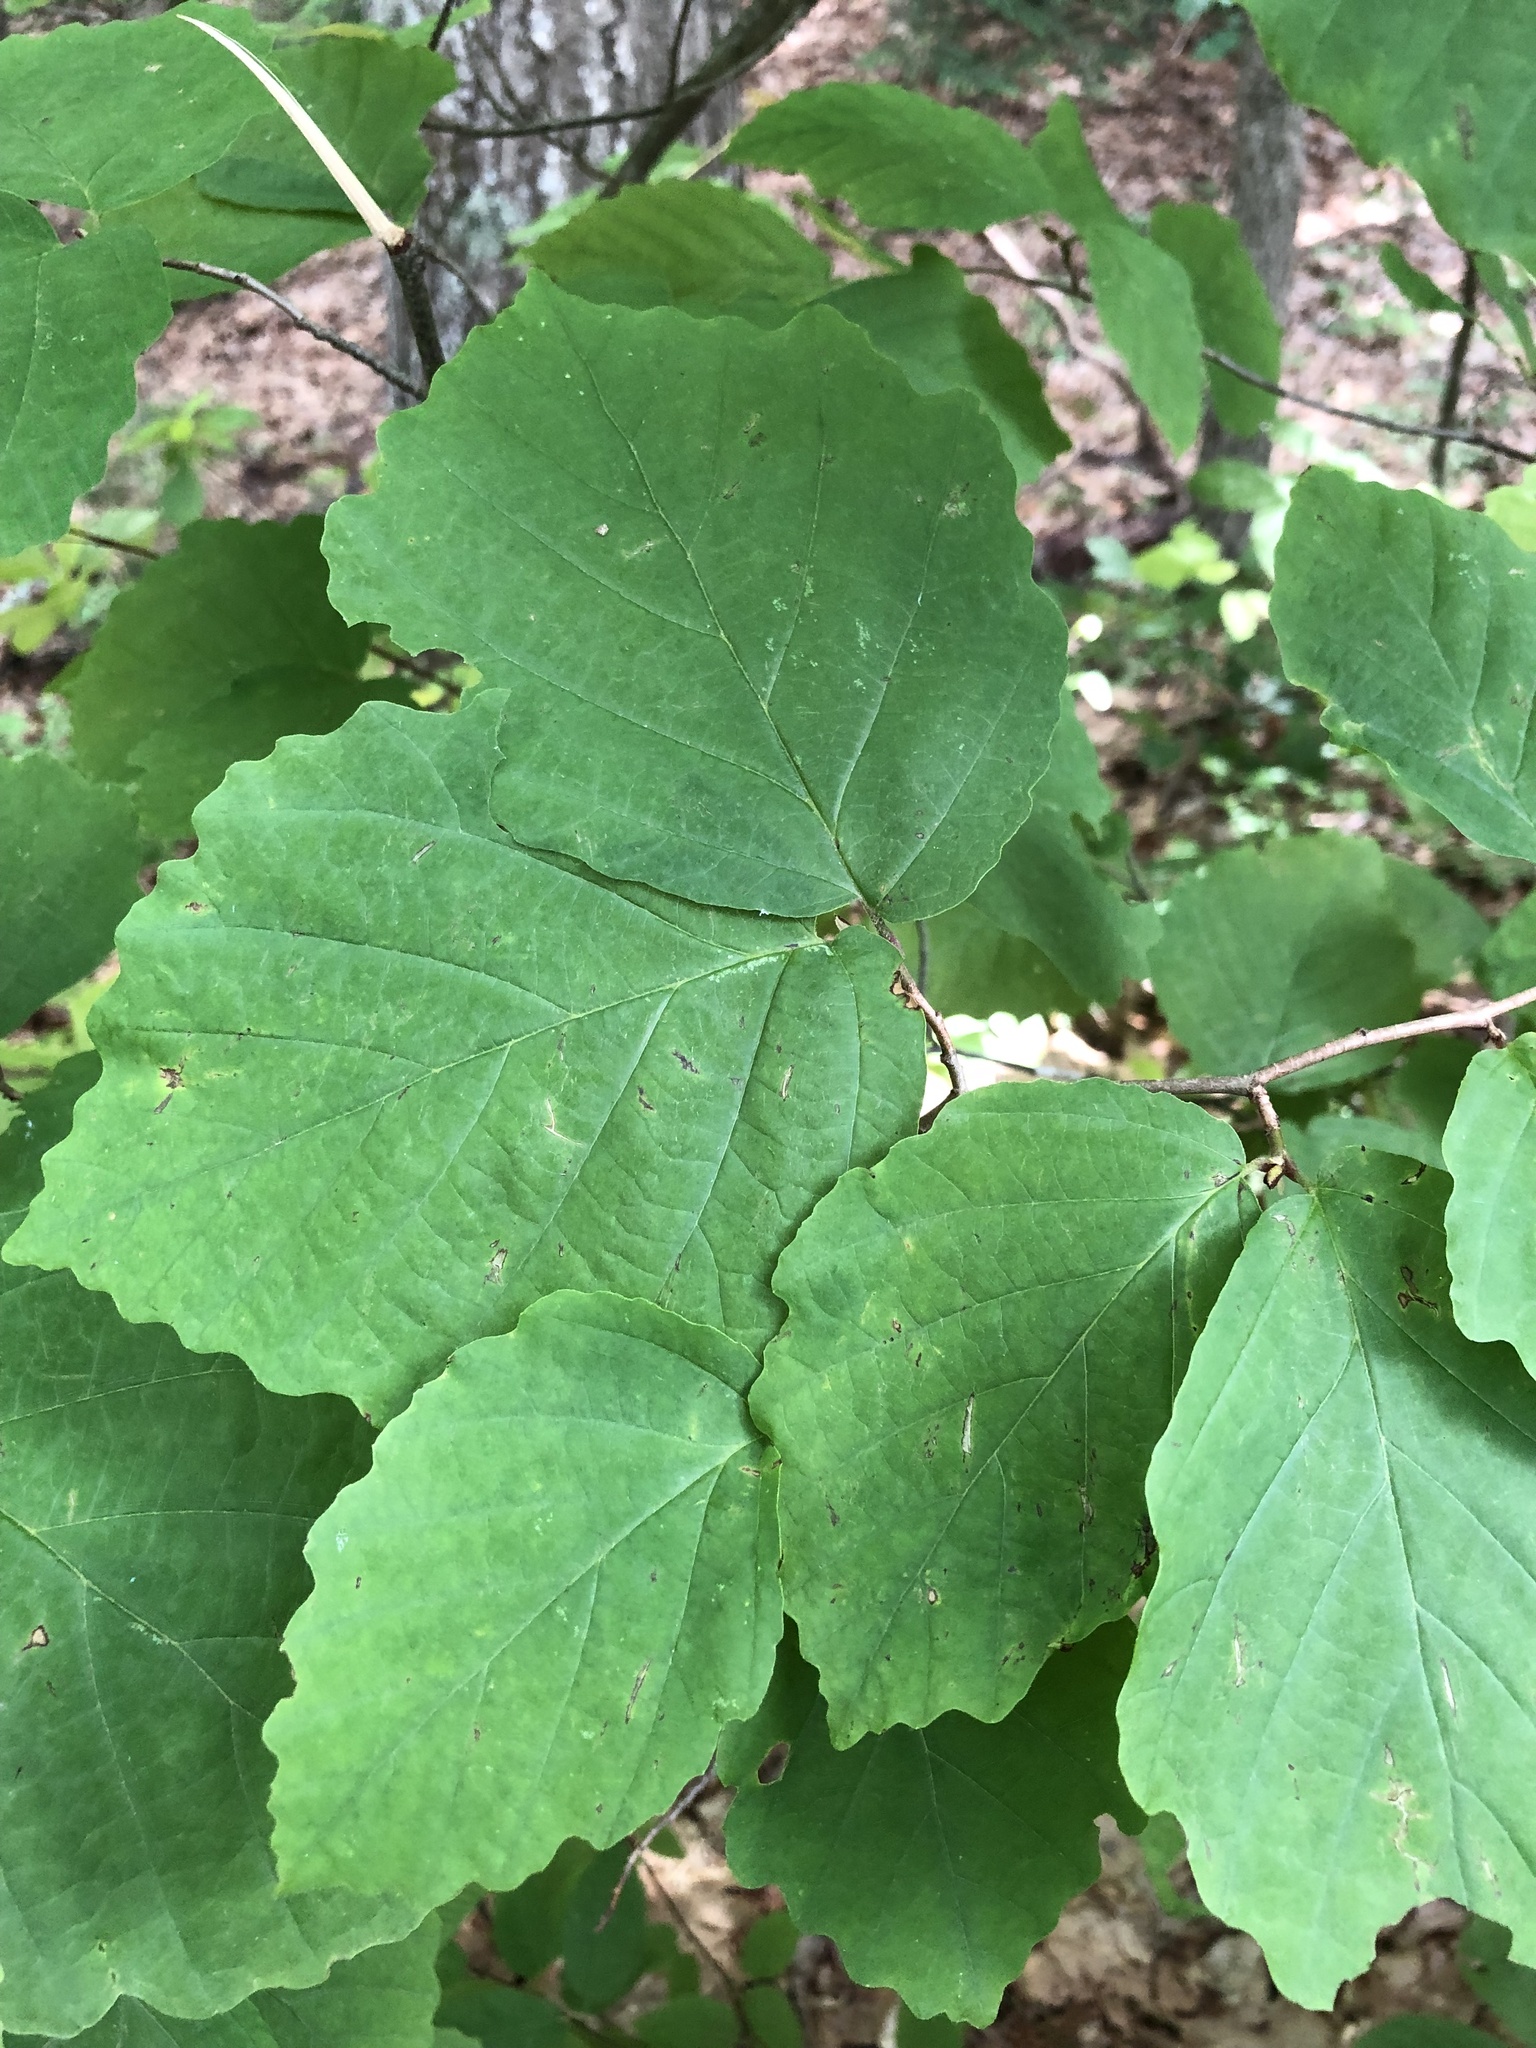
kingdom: Plantae
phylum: Tracheophyta
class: Magnoliopsida
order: Saxifragales
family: Hamamelidaceae
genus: Hamamelis
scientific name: Hamamelis virginiana
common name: Witch-hazel
